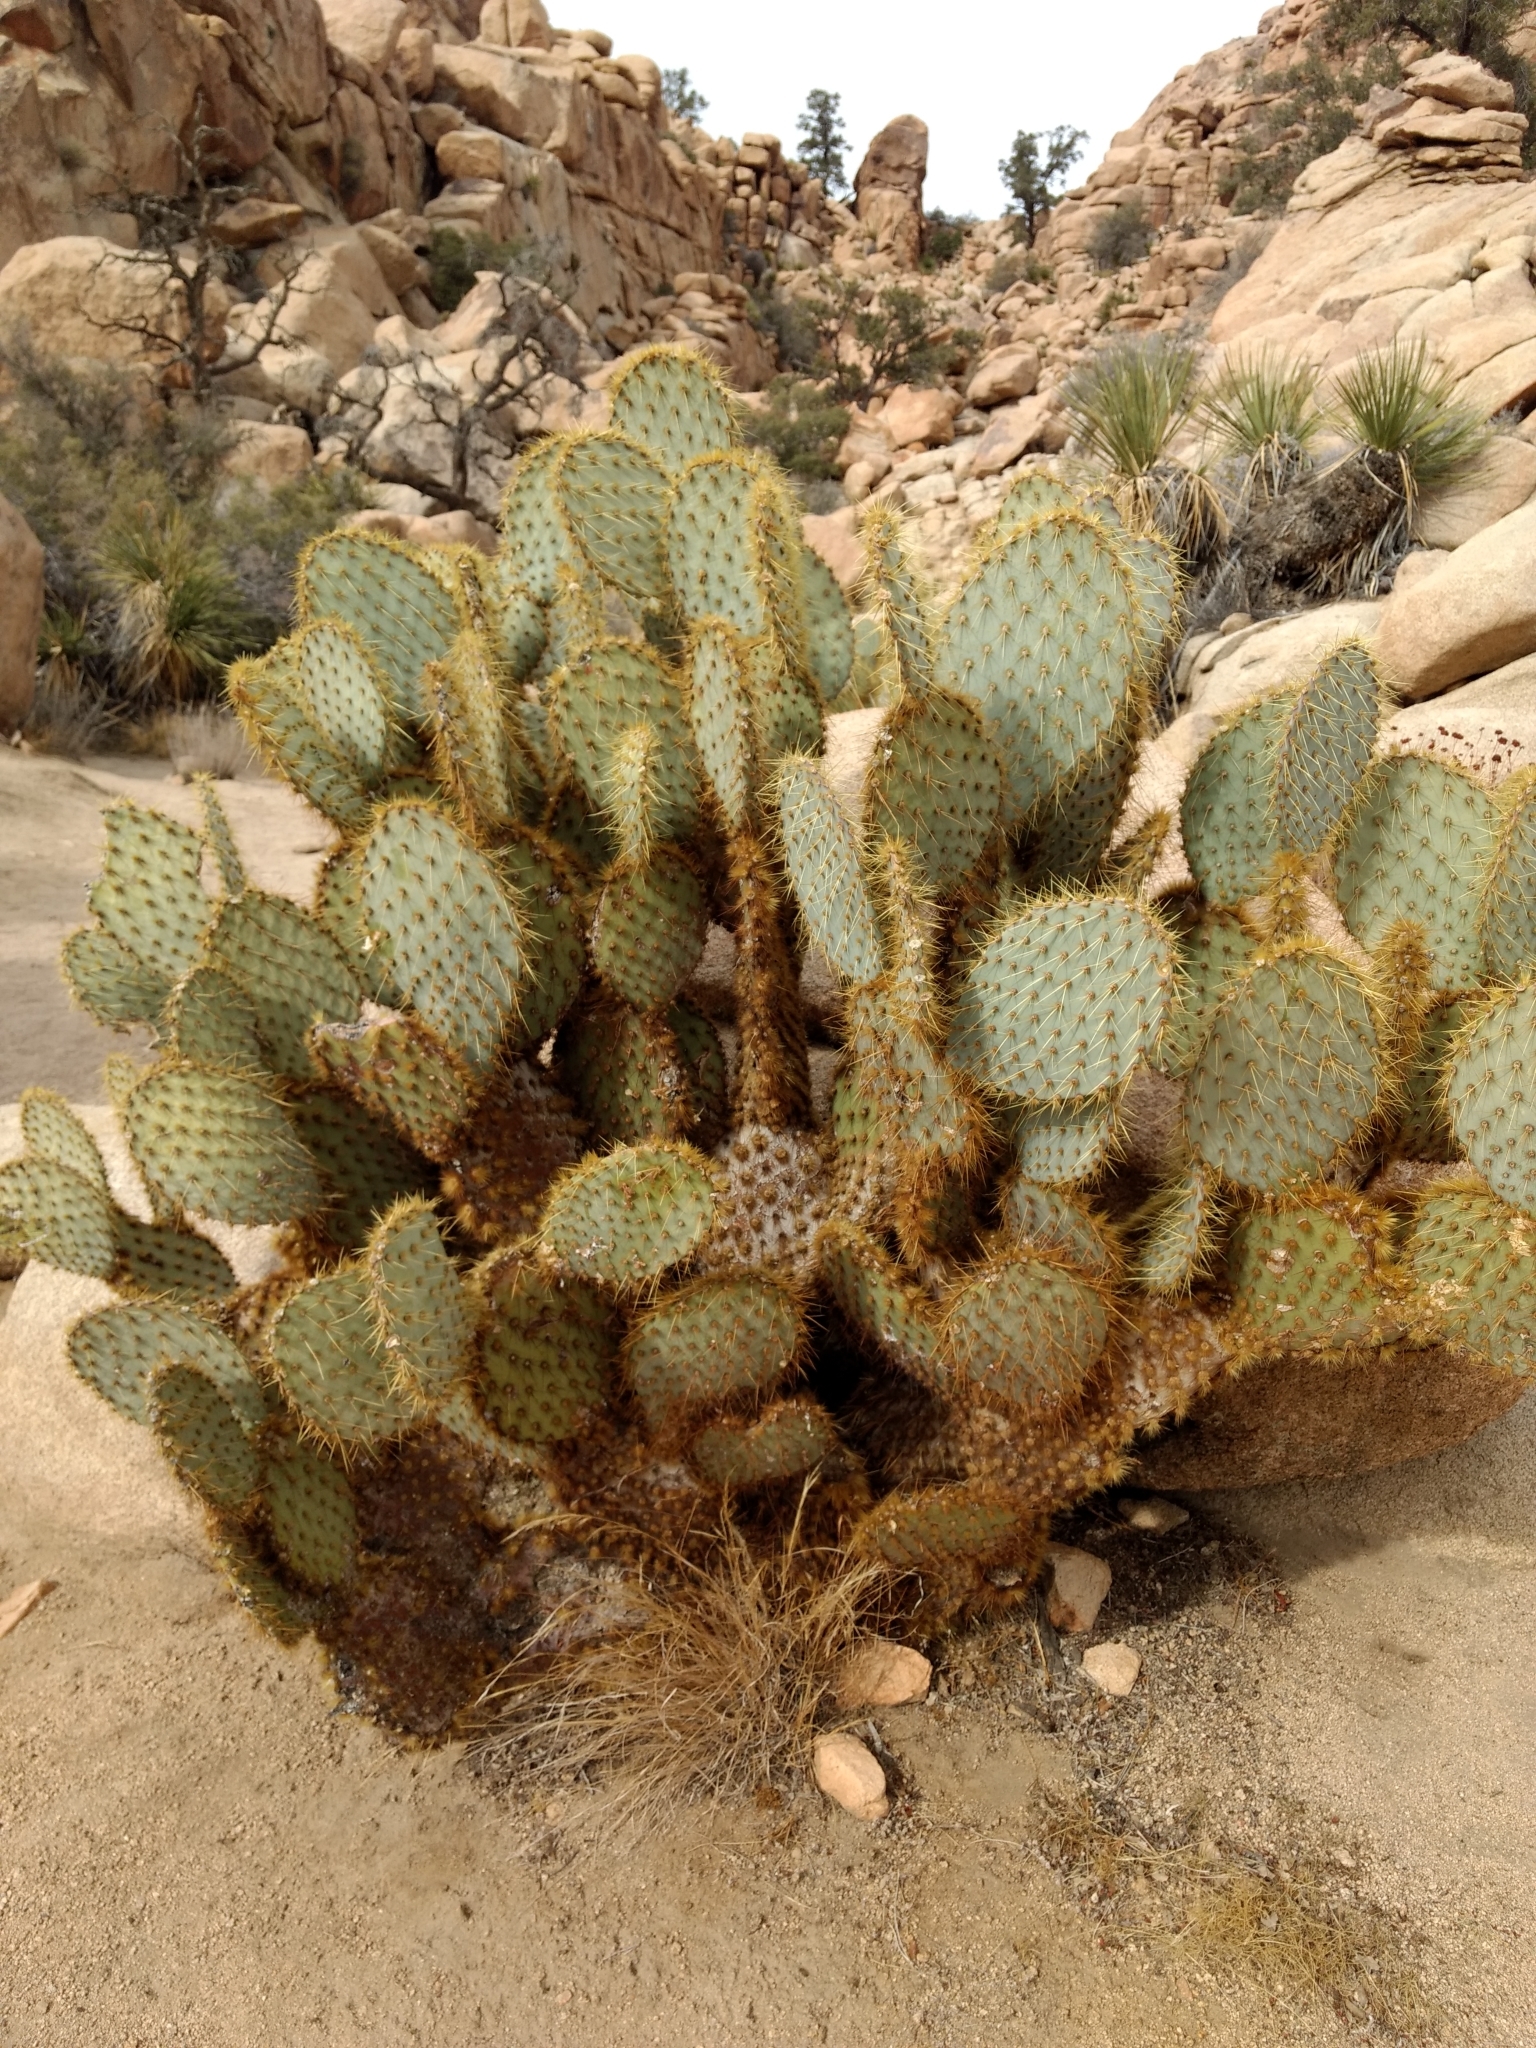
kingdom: Plantae
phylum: Tracheophyta
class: Magnoliopsida
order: Caryophyllales
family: Cactaceae
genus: Opuntia
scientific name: Opuntia chlorotica
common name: Dollar-joint prickly-pear
